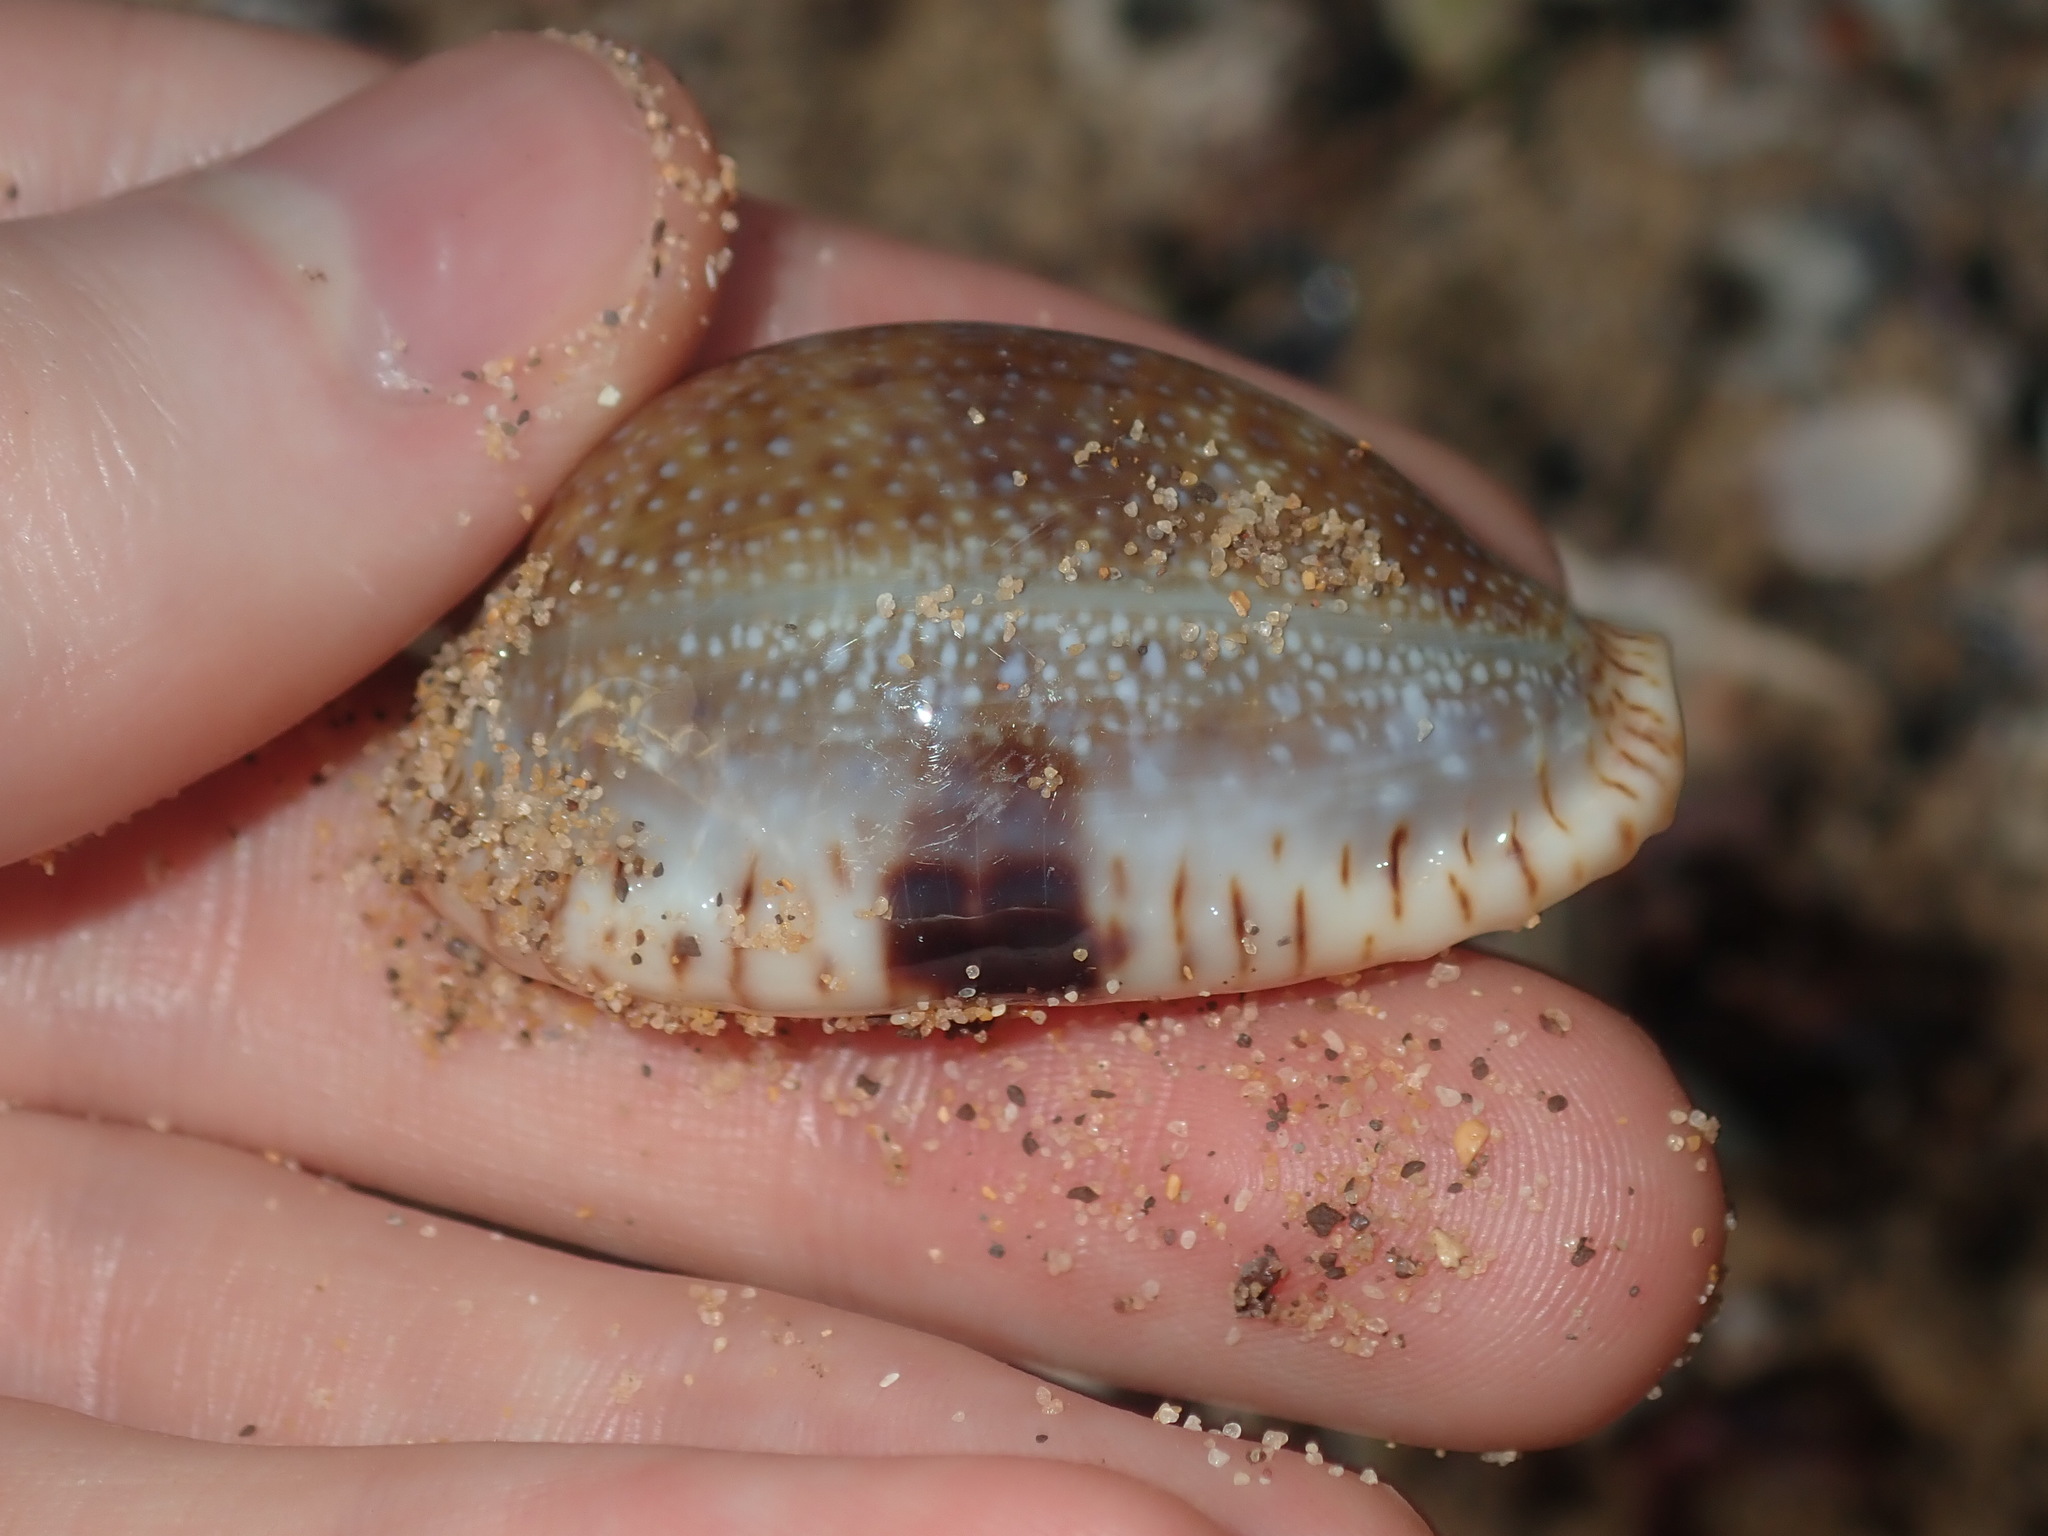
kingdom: Animalia
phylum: Mollusca
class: Gastropoda
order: Littorinimorpha
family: Cypraeidae
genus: Naria
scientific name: Naria erosa
